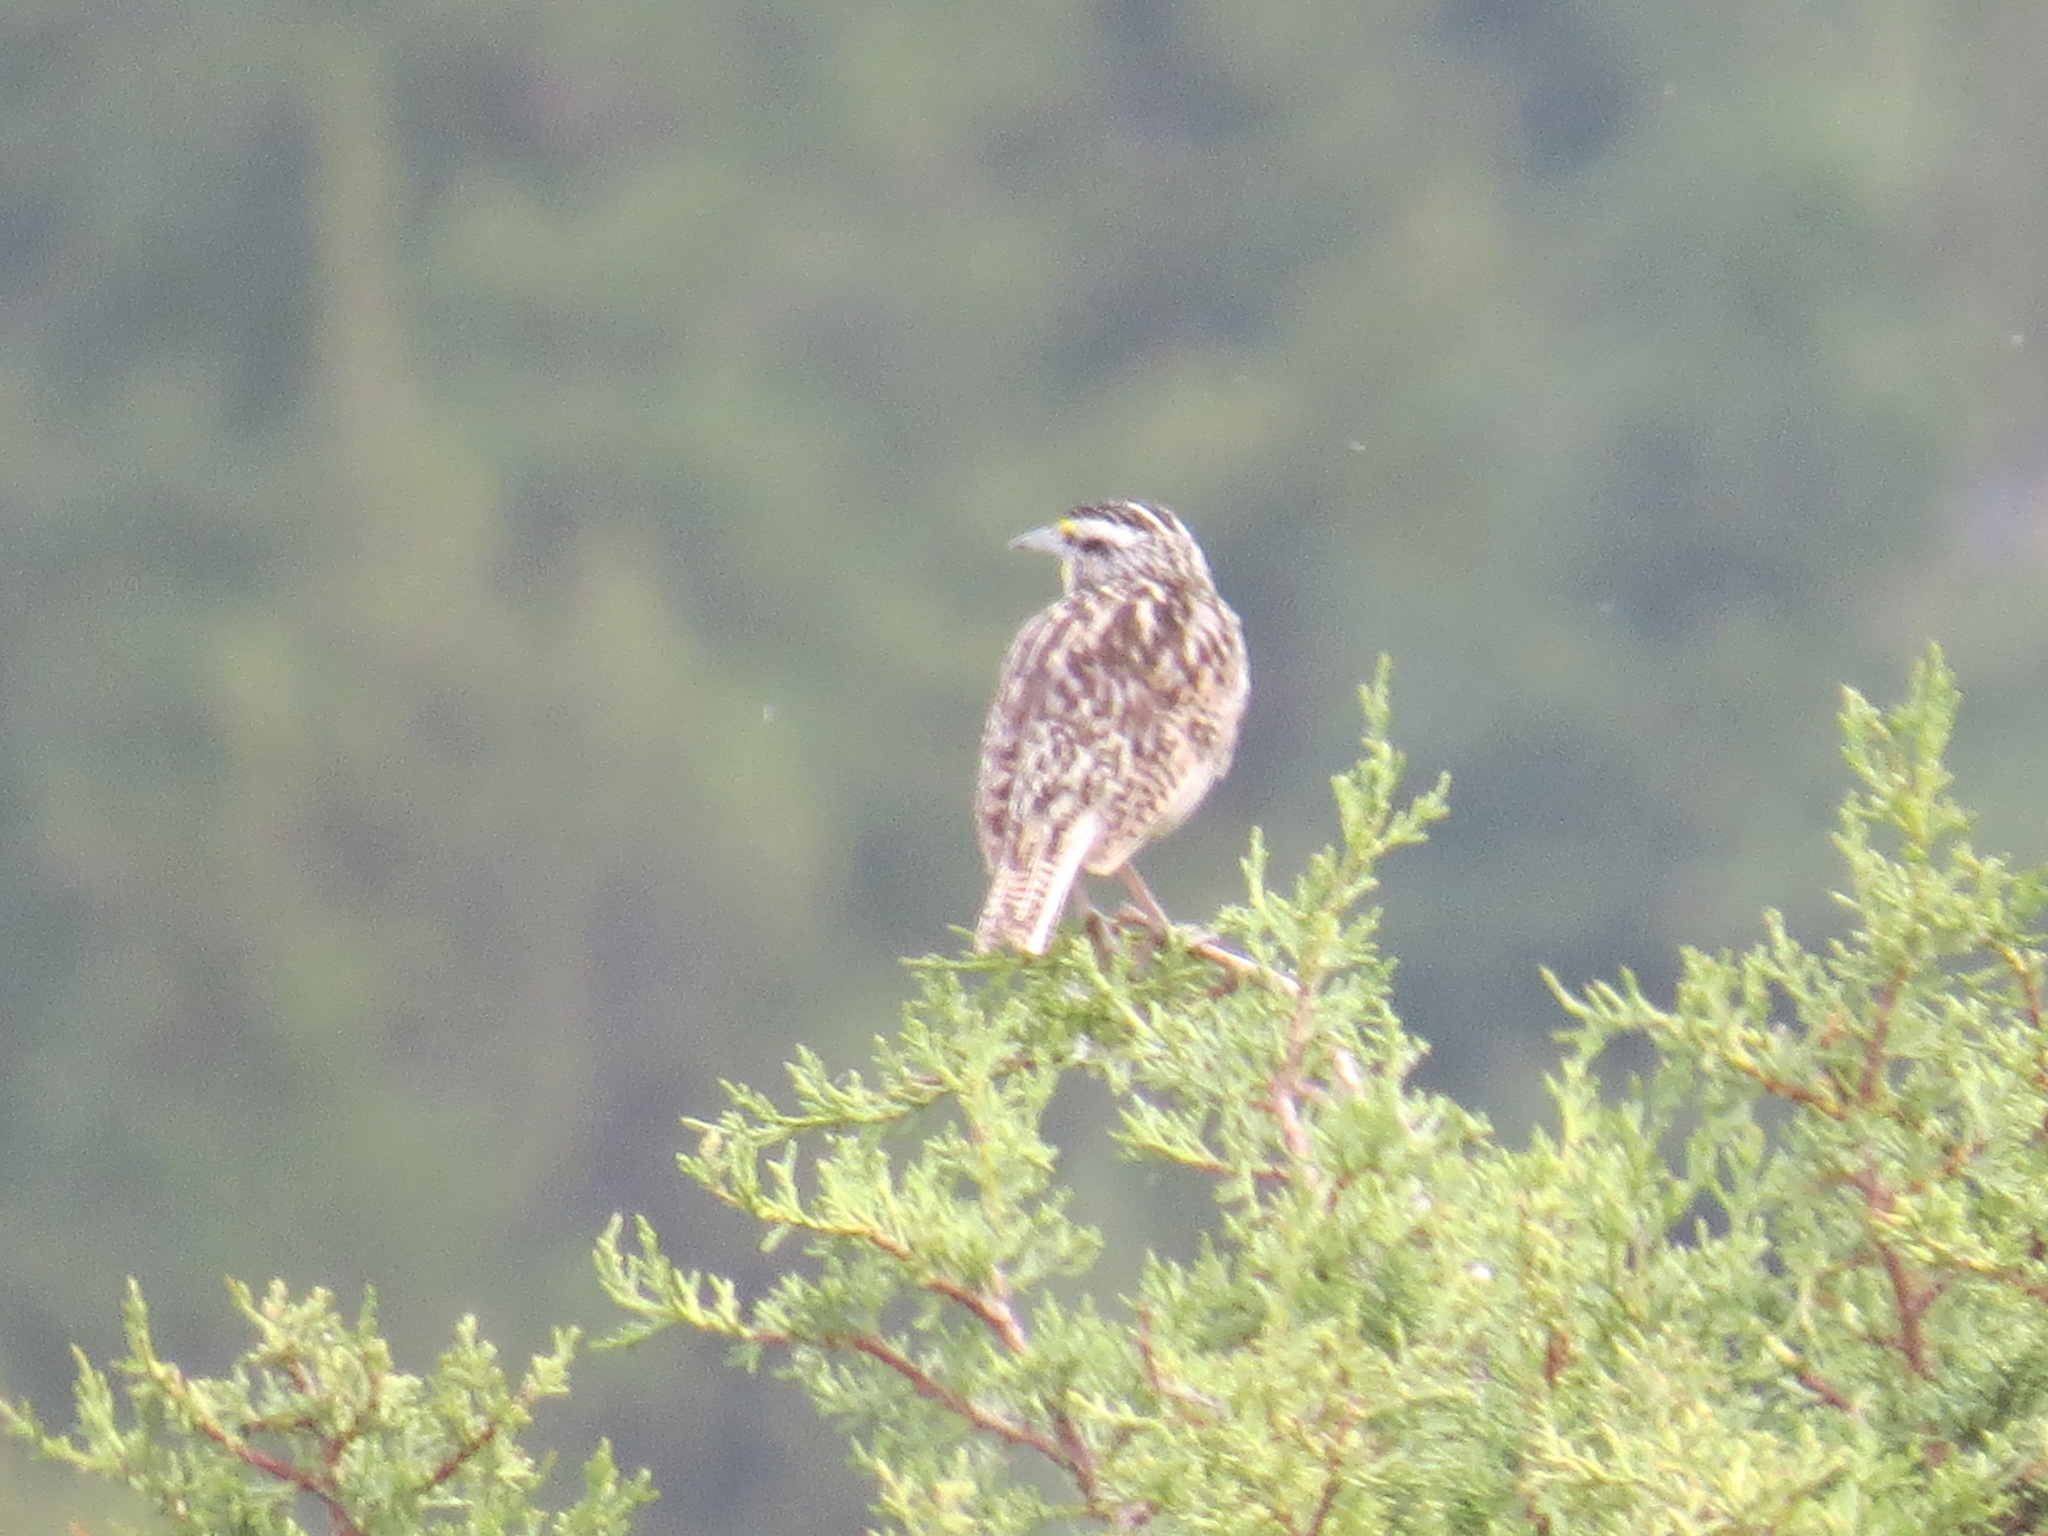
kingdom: Animalia
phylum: Chordata
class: Aves
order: Passeriformes
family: Icteridae
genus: Sturnella
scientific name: Sturnella neglecta
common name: Western meadowlark
